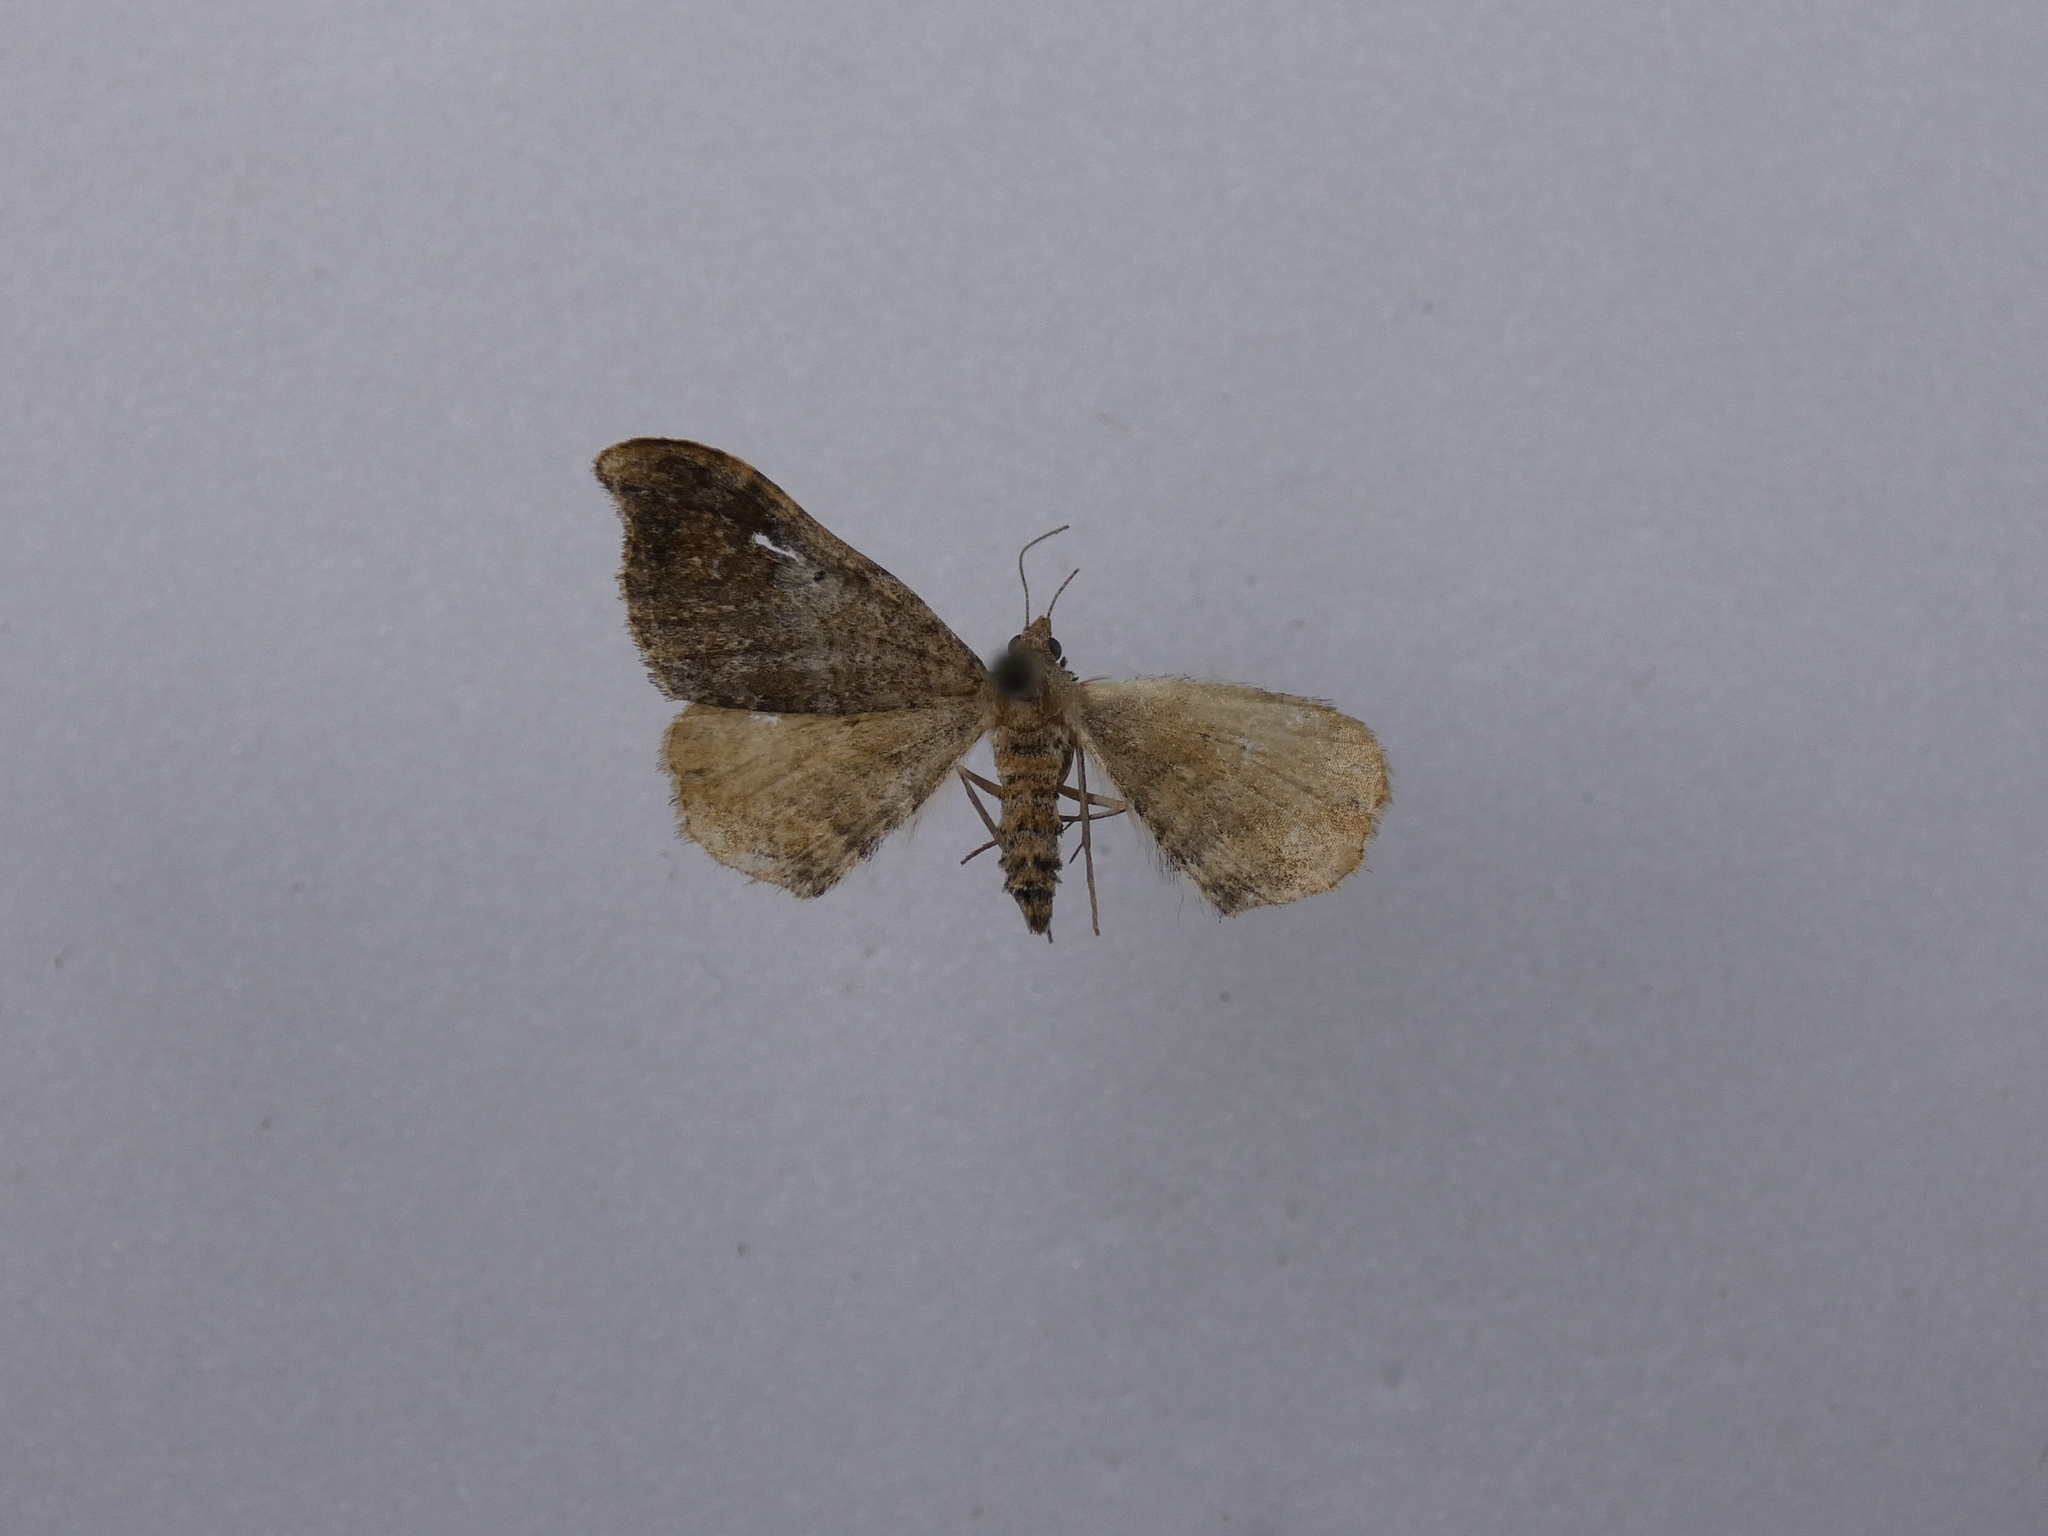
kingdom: Animalia
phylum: Arthropoda
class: Insecta
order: Lepidoptera
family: Geometridae
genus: Homodotis
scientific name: Homodotis megaspilata
